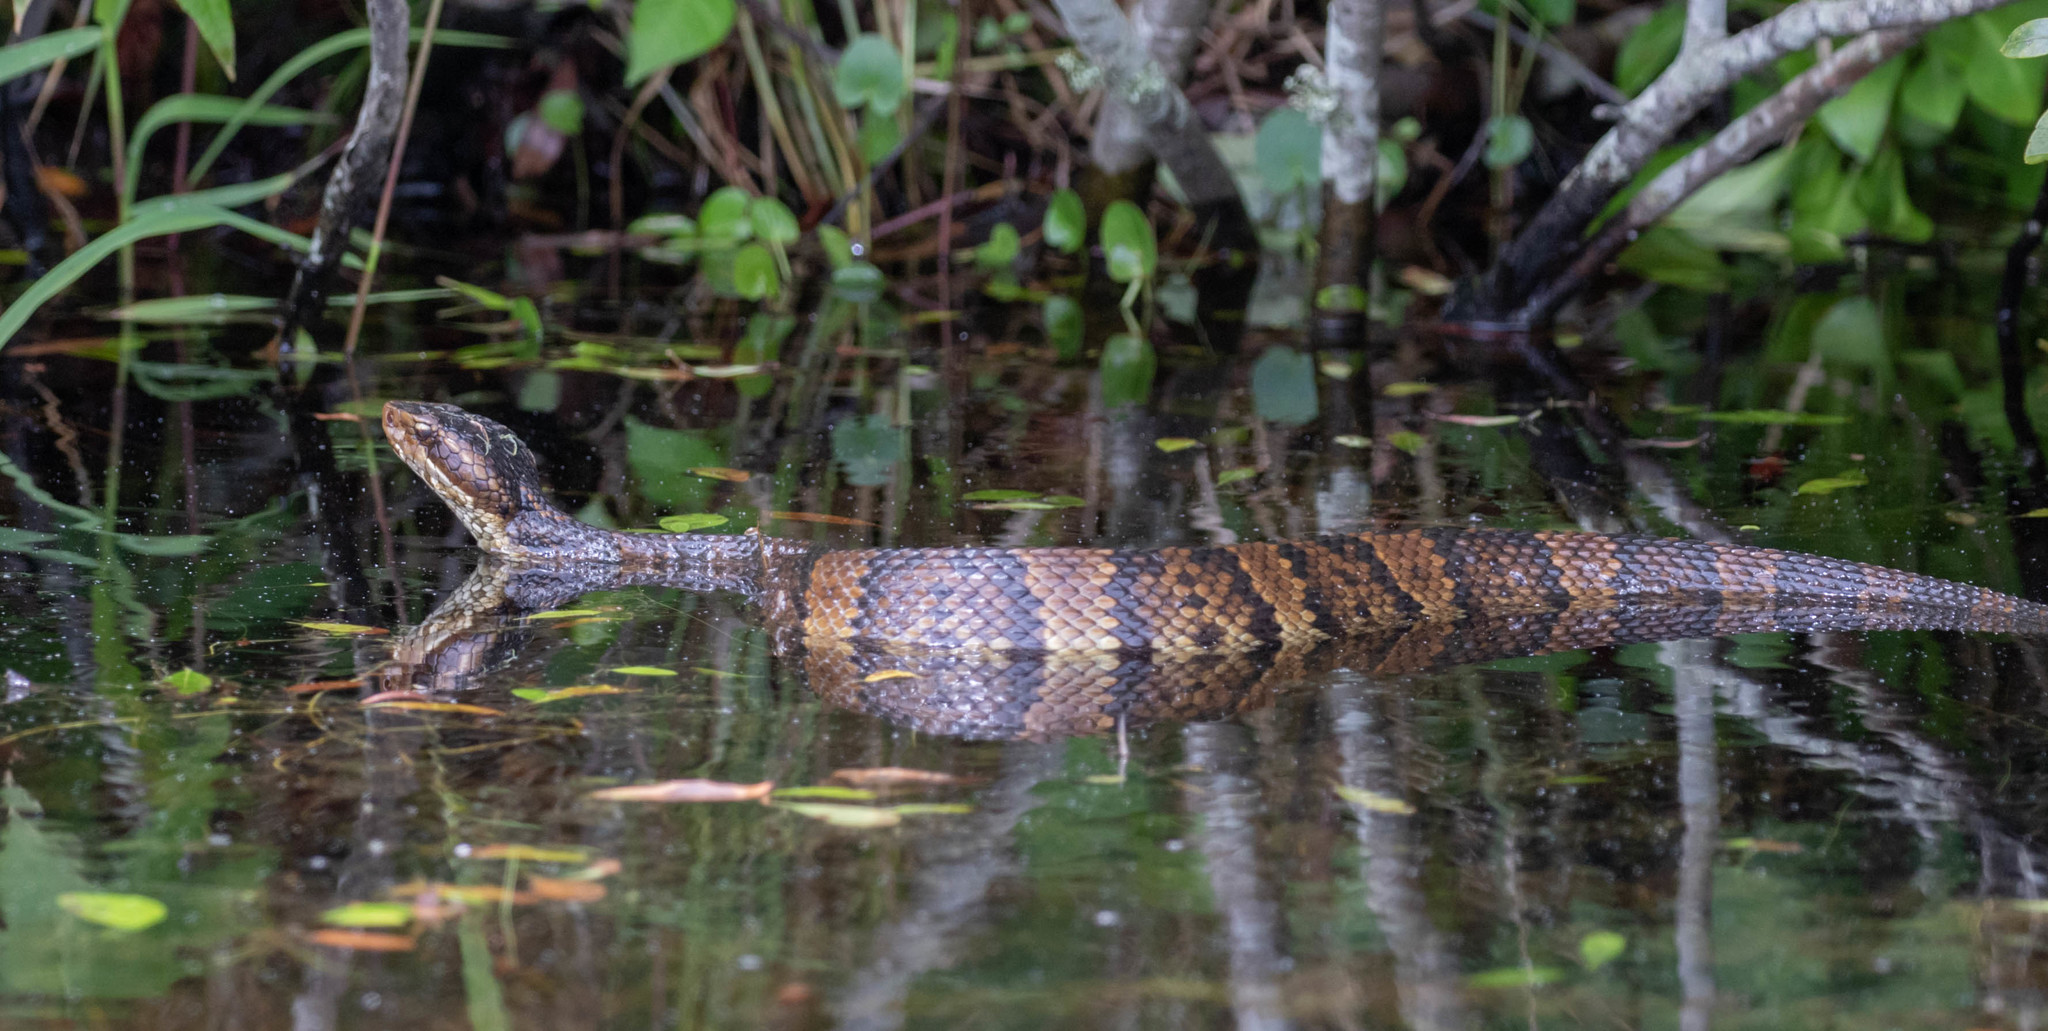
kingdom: Animalia
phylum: Chordata
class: Squamata
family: Viperidae
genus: Agkistrodon
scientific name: Agkistrodon piscivorus
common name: Cottonmouth
